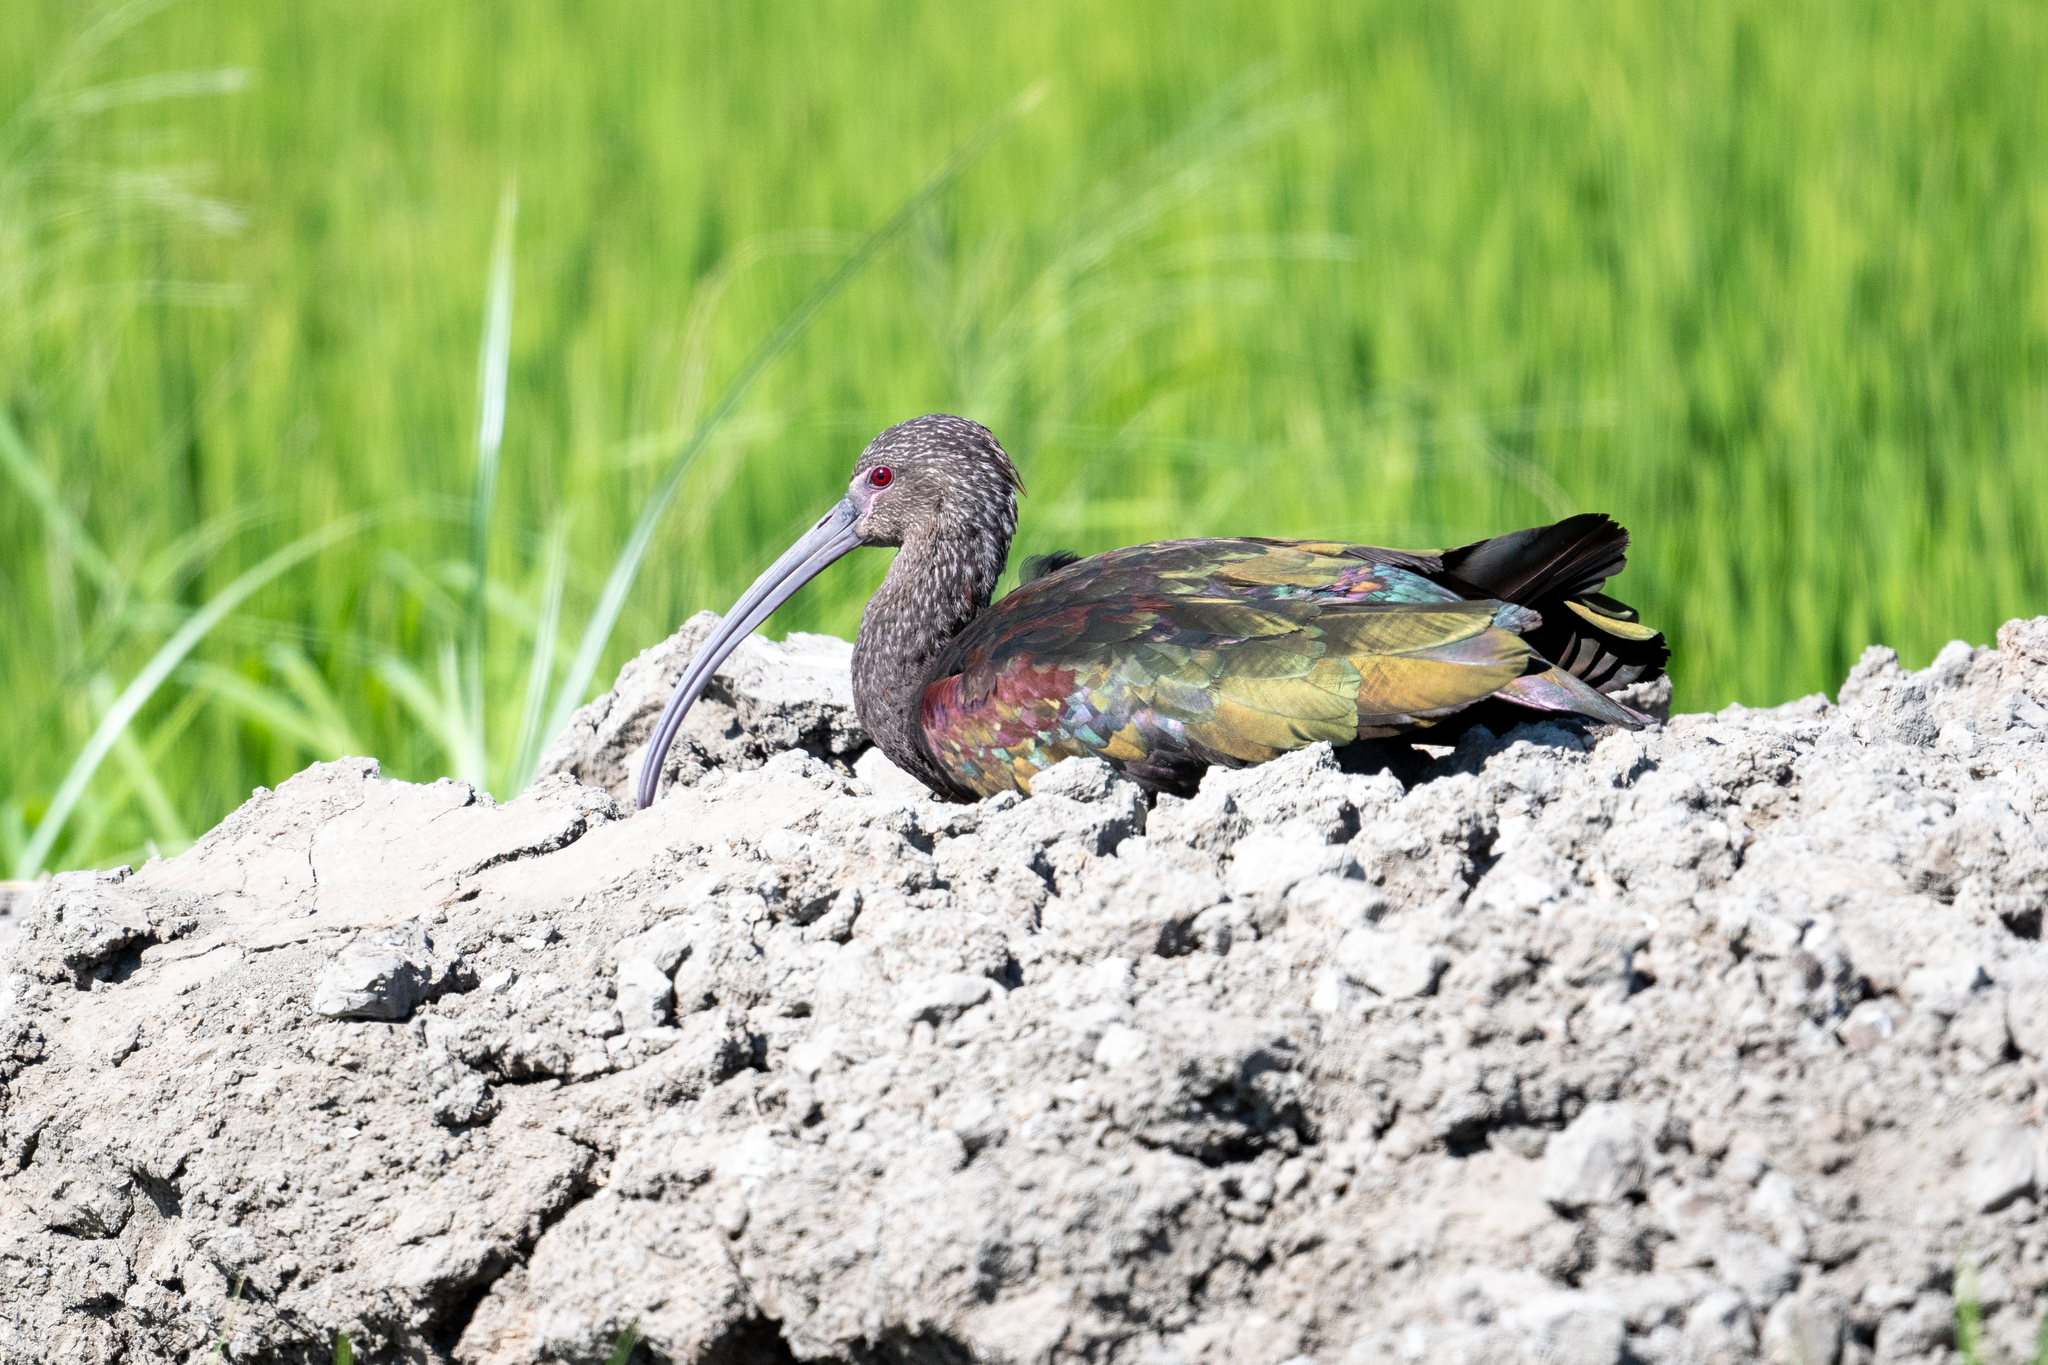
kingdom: Animalia
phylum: Chordata
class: Aves
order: Pelecaniformes
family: Threskiornithidae
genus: Plegadis
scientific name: Plegadis chihi
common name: White-faced ibis
